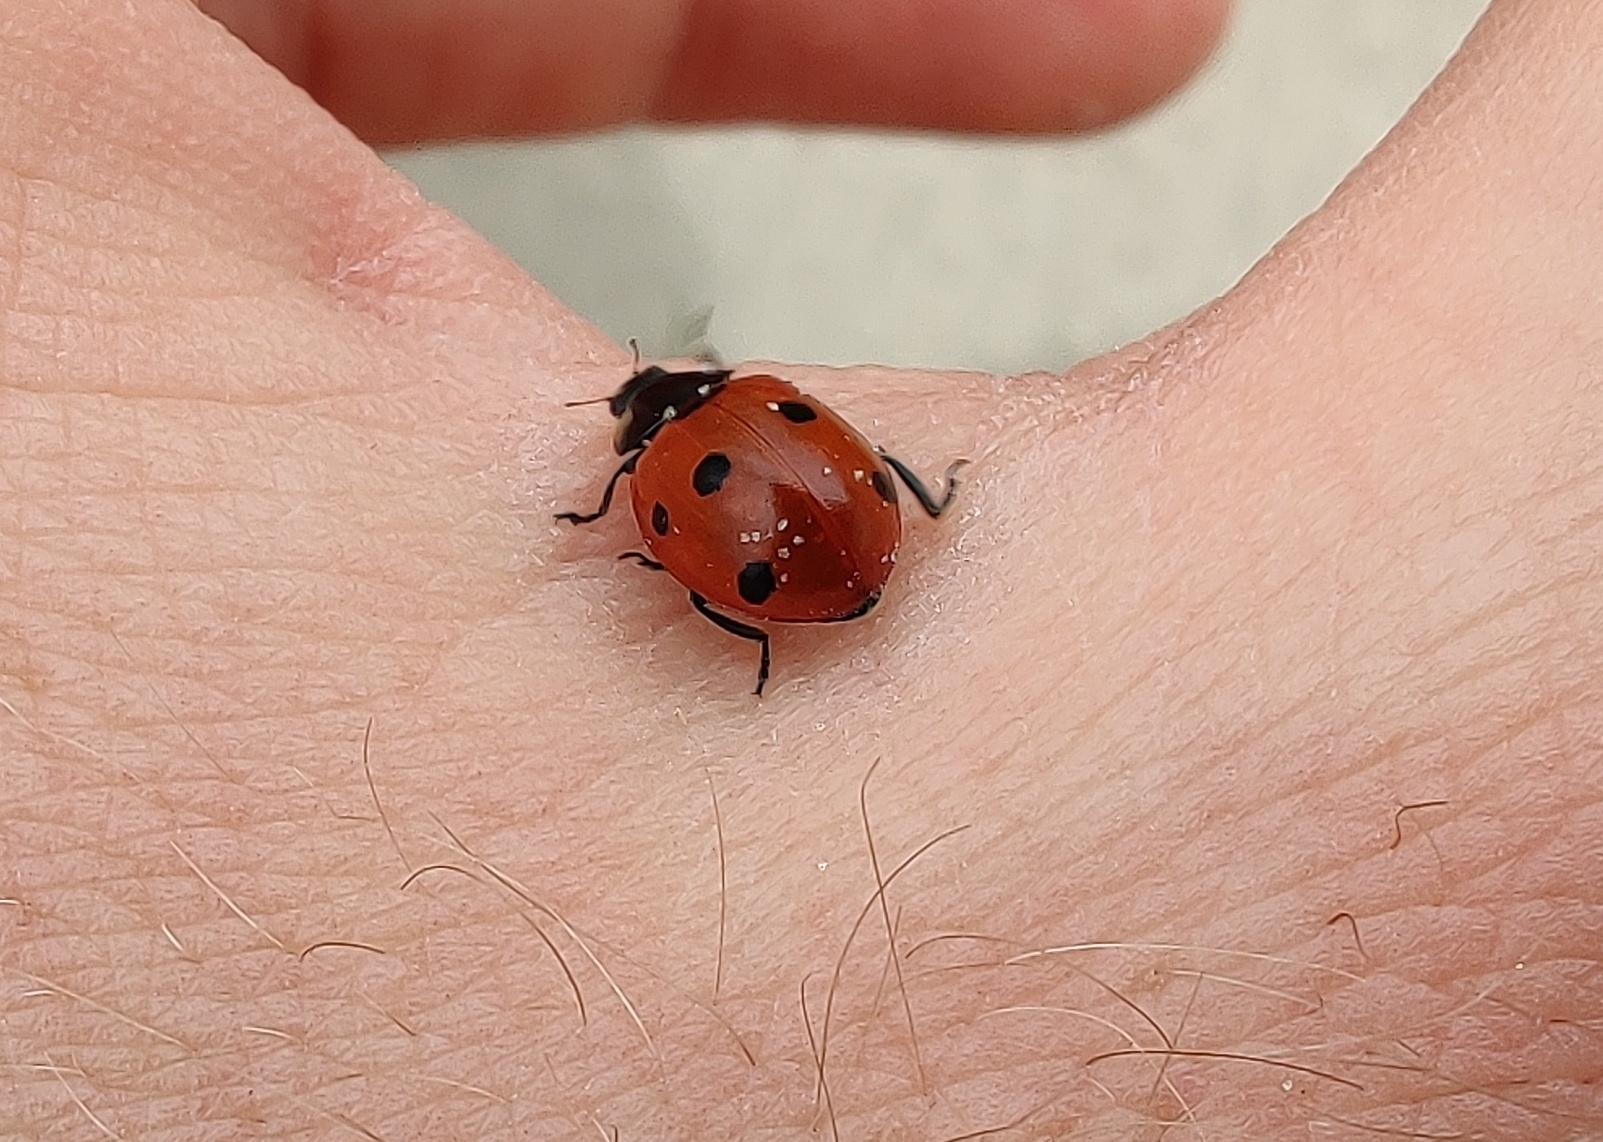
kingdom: Animalia
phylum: Arthropoda
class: Insecta
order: Coleoptera
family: Coccinellidae
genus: Coccinella
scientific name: Coccinella septempunctata
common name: Sevenspotted lady beetle
